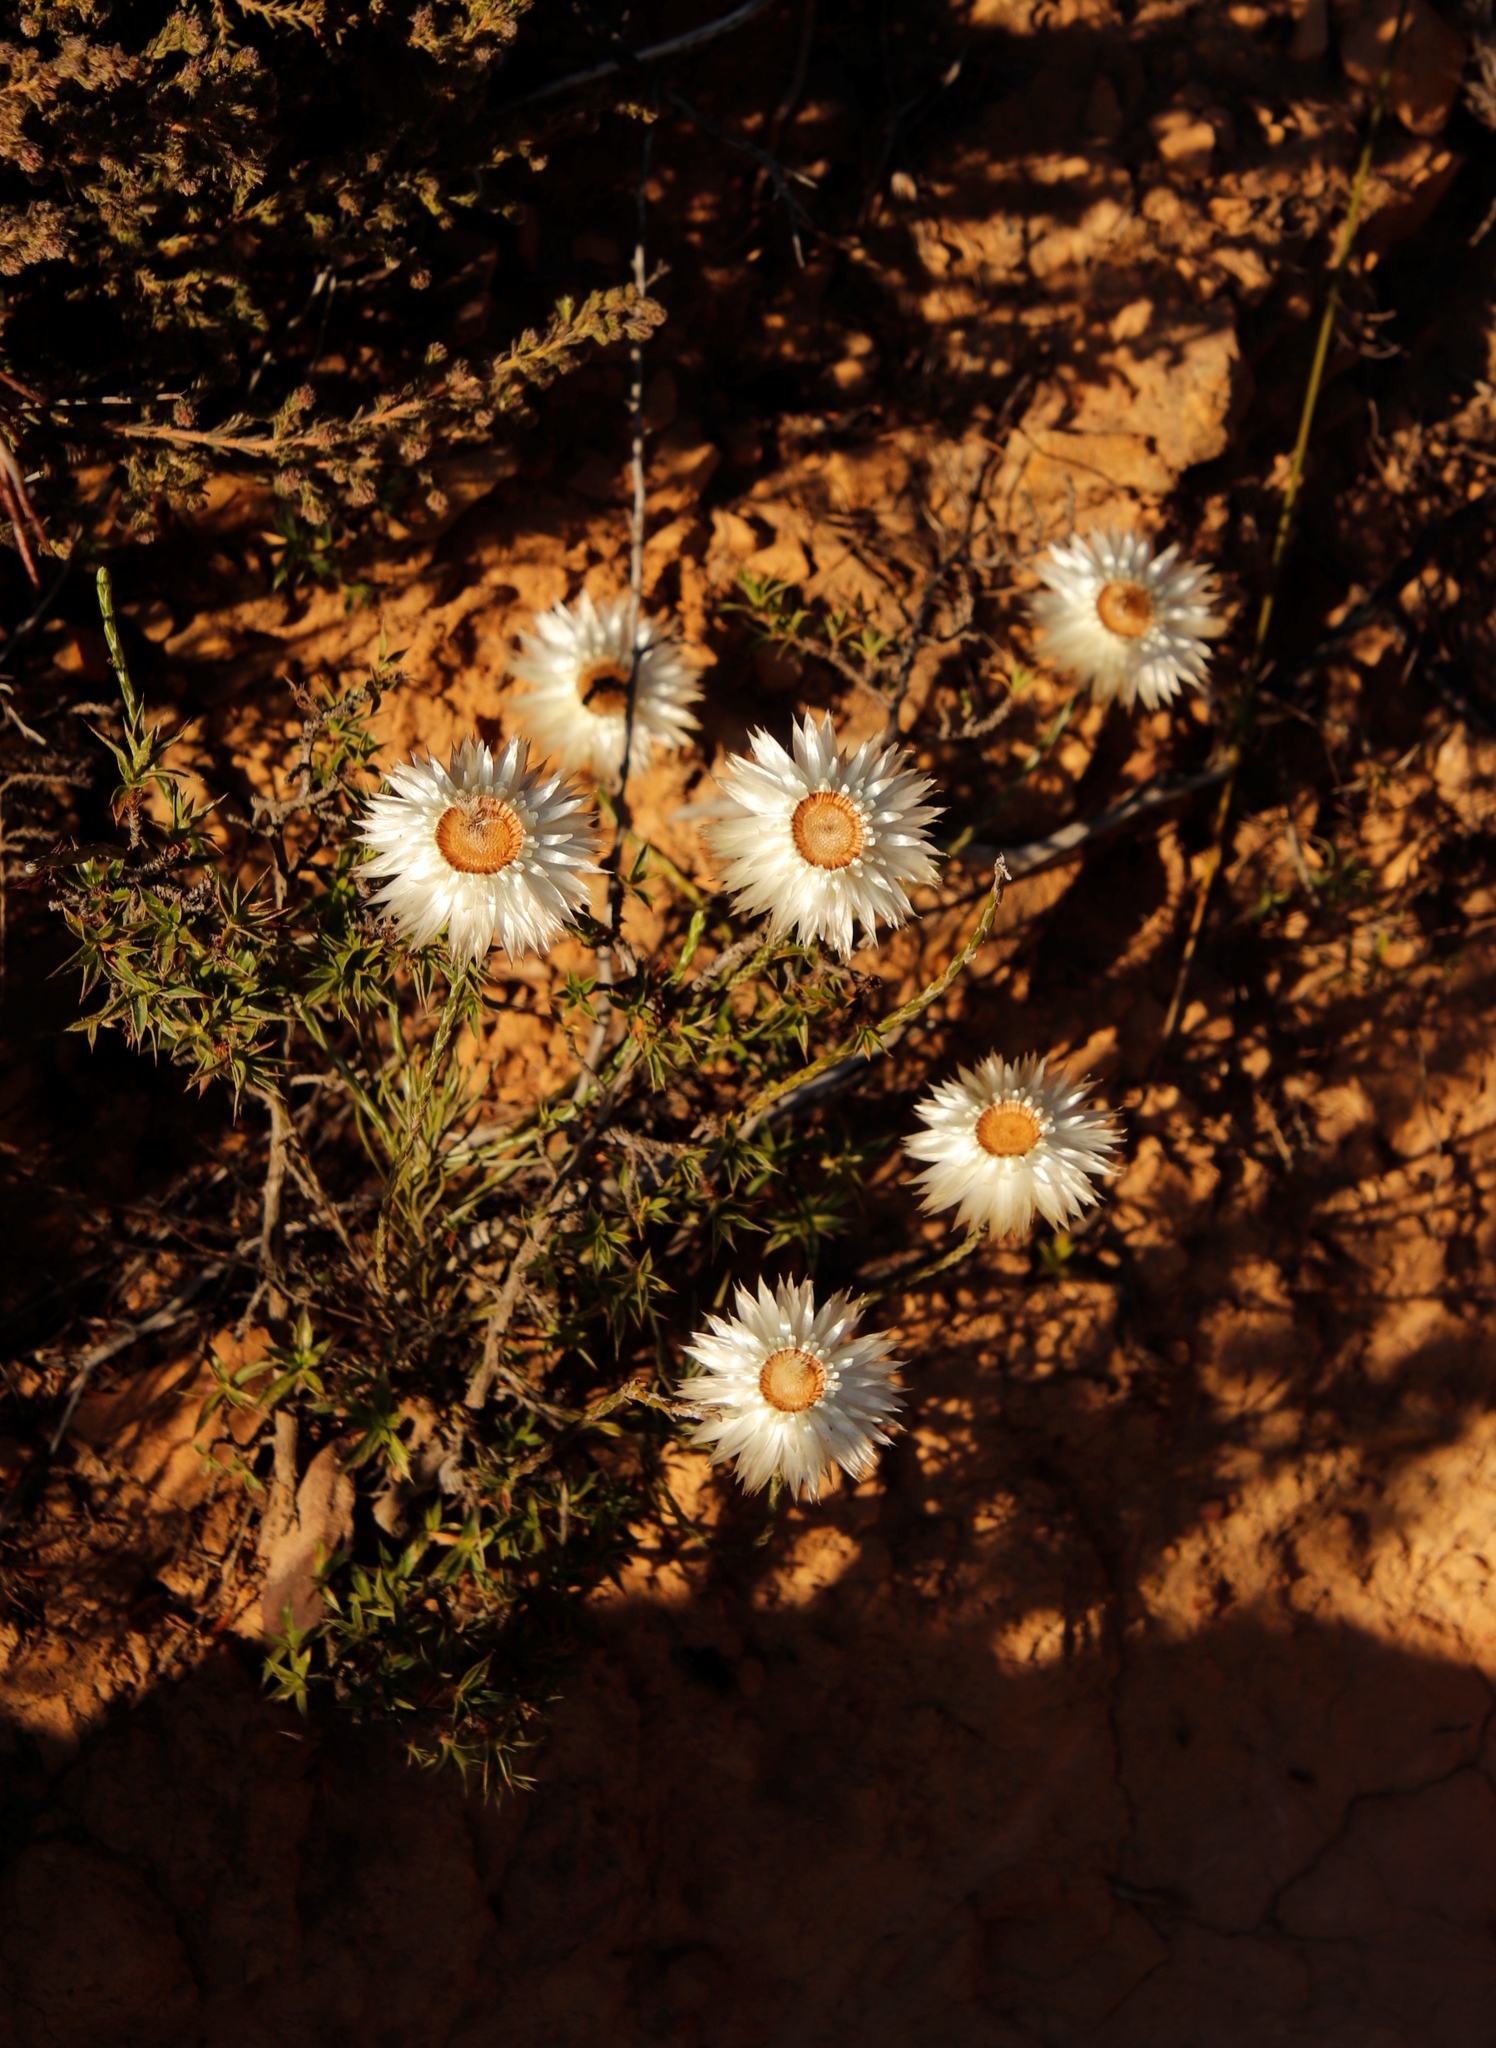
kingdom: Plantae
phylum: Tracheophyta
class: Magnoliopsida
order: Asterales
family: Asteraceae
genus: Edmondia
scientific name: Edmondia sesamoides
